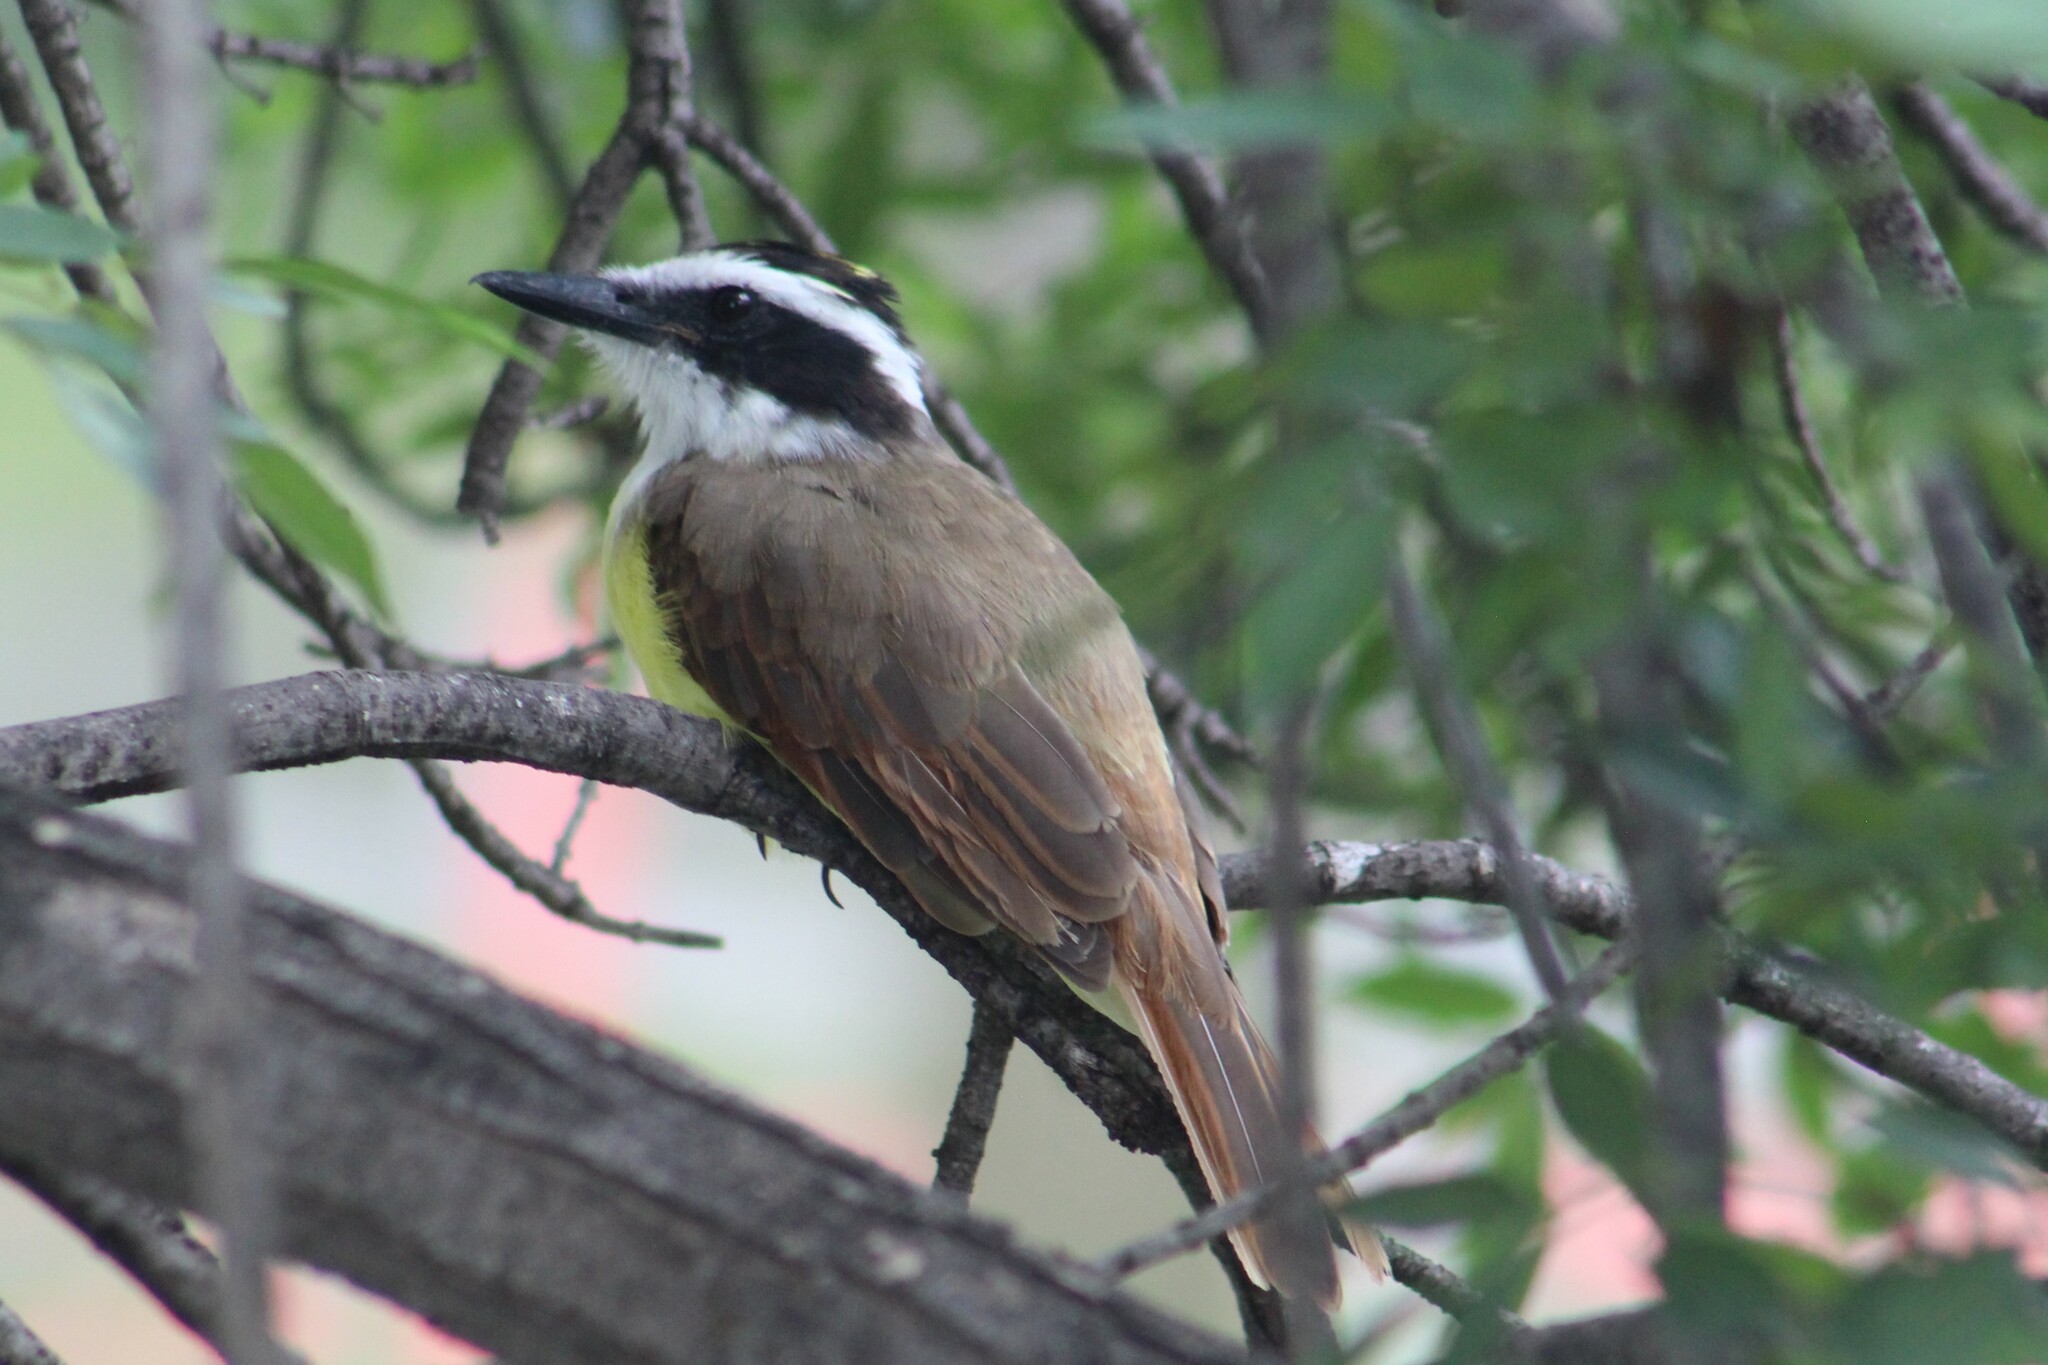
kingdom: Animalia
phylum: Chordata
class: Aves
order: Passeriformes
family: Tyrannidae
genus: Pitangus
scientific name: Pitangus sulphuratus
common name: Great kiskadee
